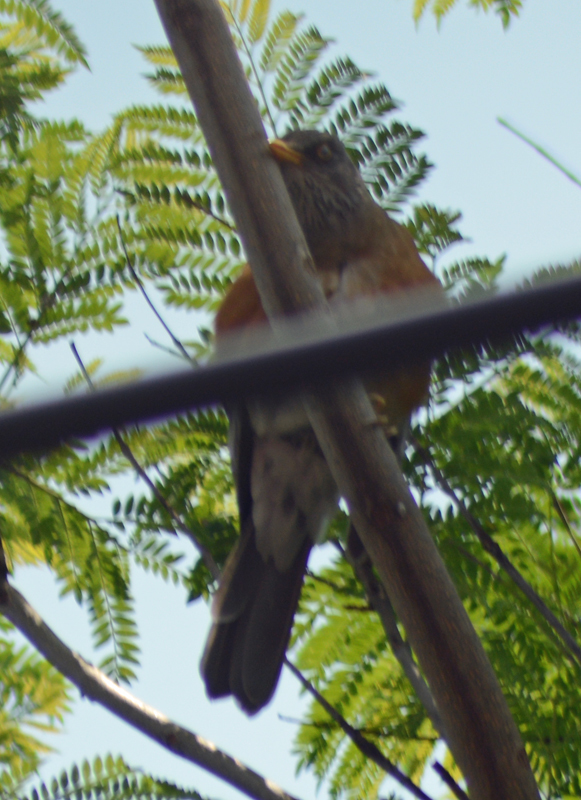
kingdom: Animalia
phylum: Chordata
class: Aves
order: Passeriformes
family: Turdidae
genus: Turdus
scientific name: Turdus rufopalliatus
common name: Rufous-backed robin
